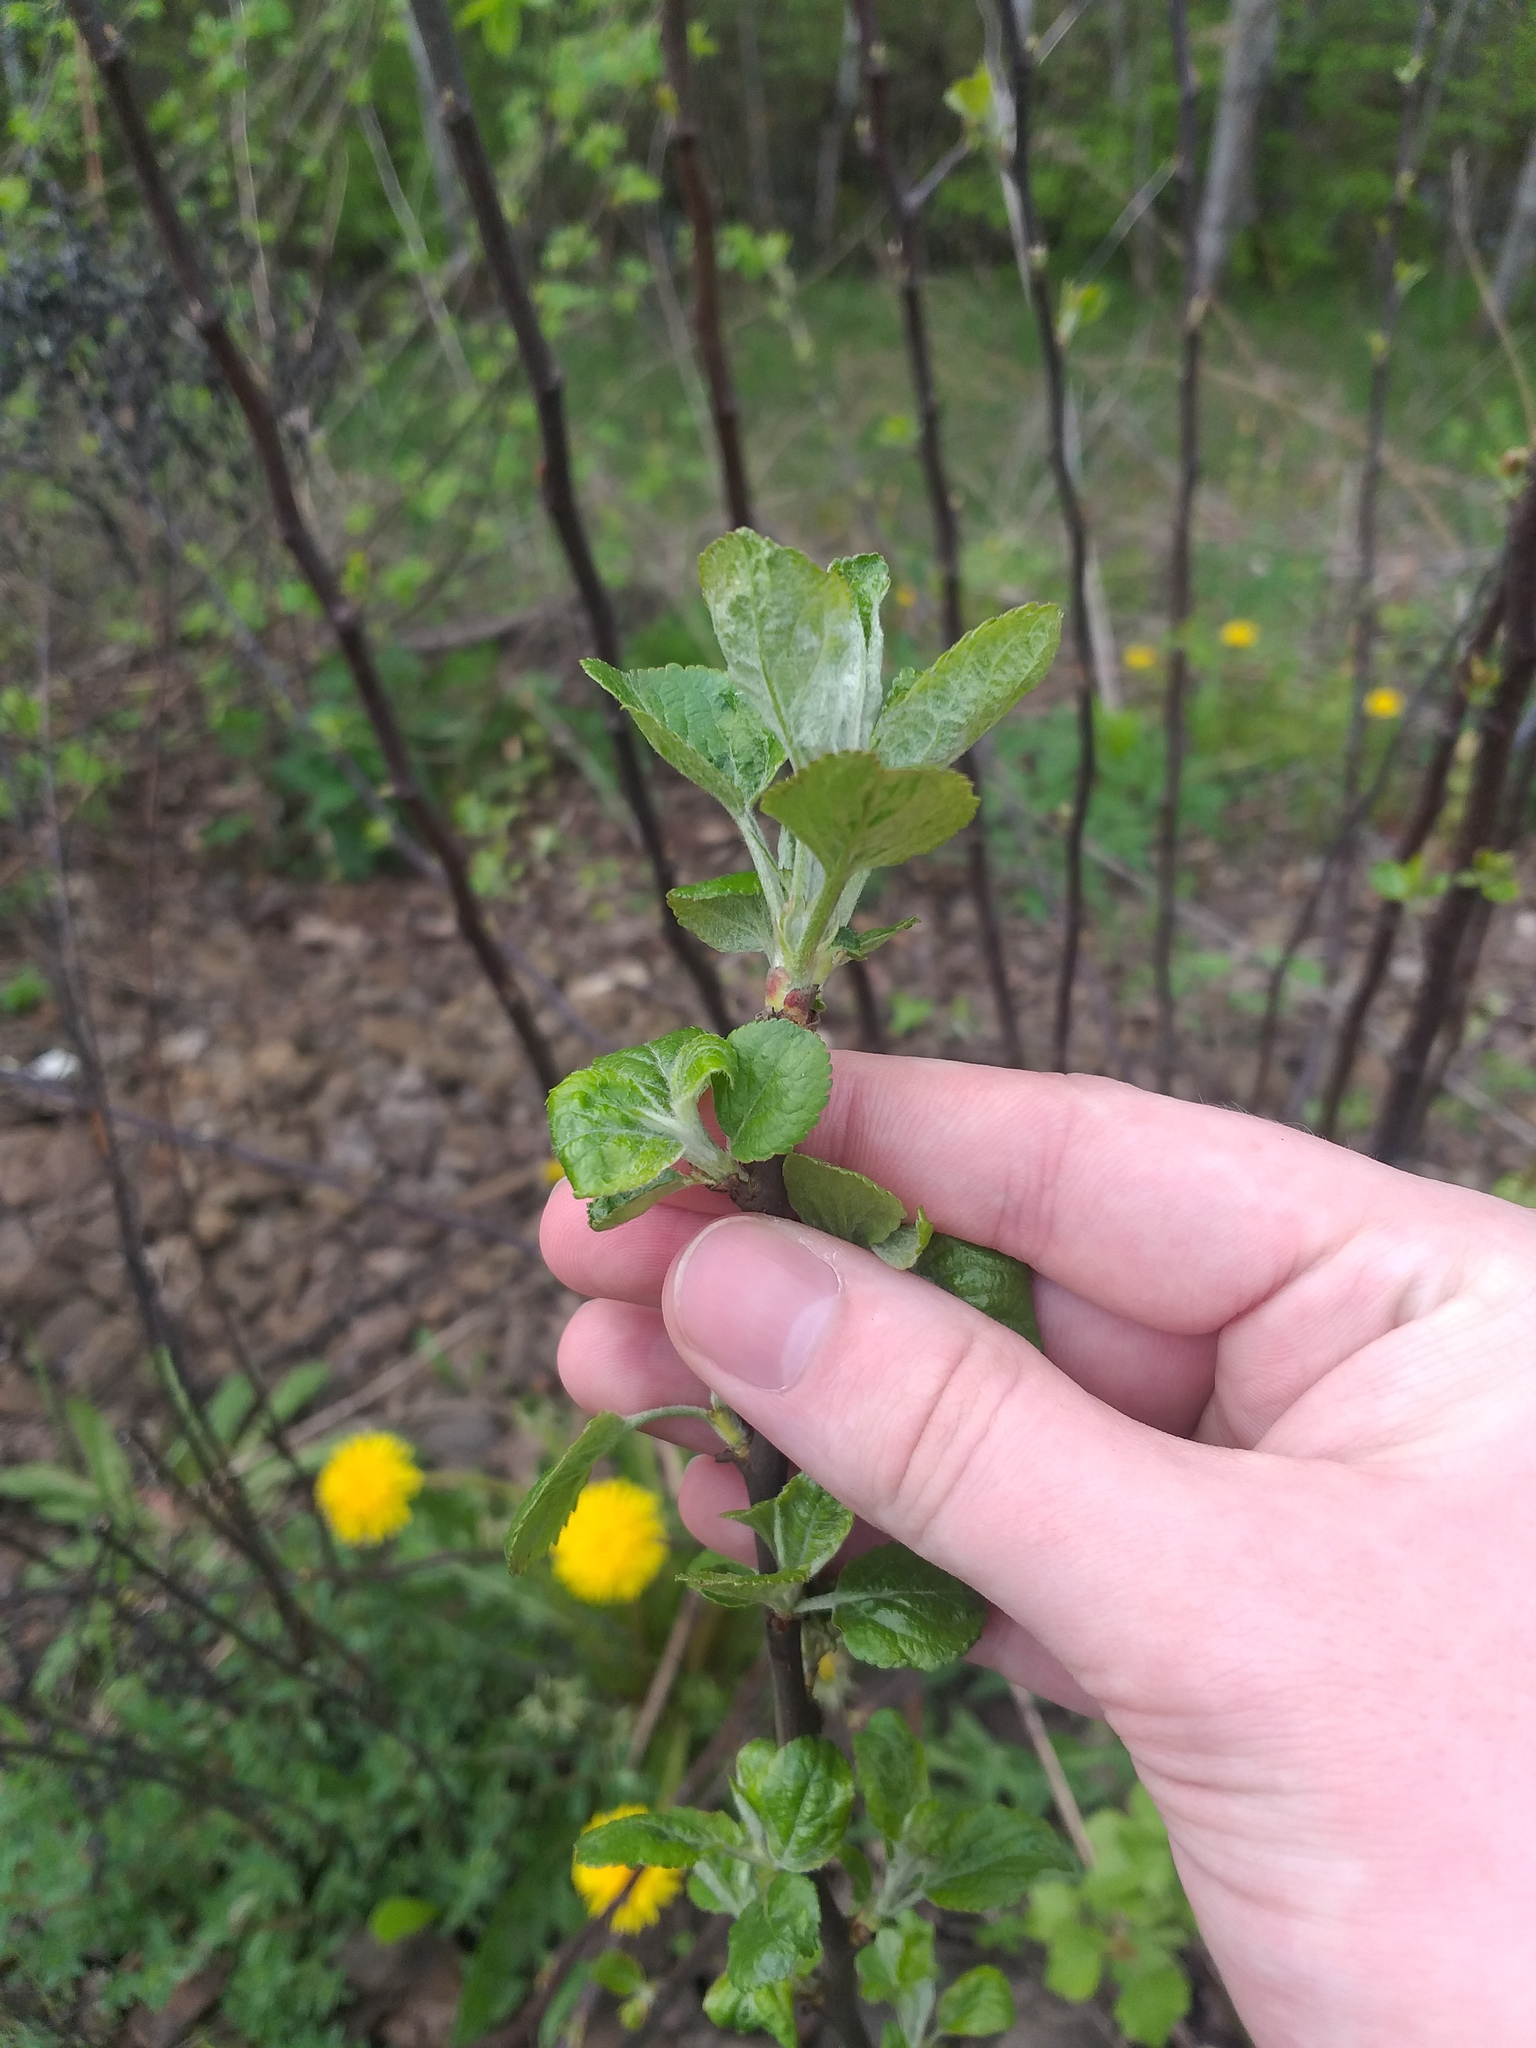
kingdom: Plantae
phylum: Tracheophyta
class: Magnoliopsida
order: Rosales
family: Rosaceae
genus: Malus
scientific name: Malus domestica
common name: Apple
